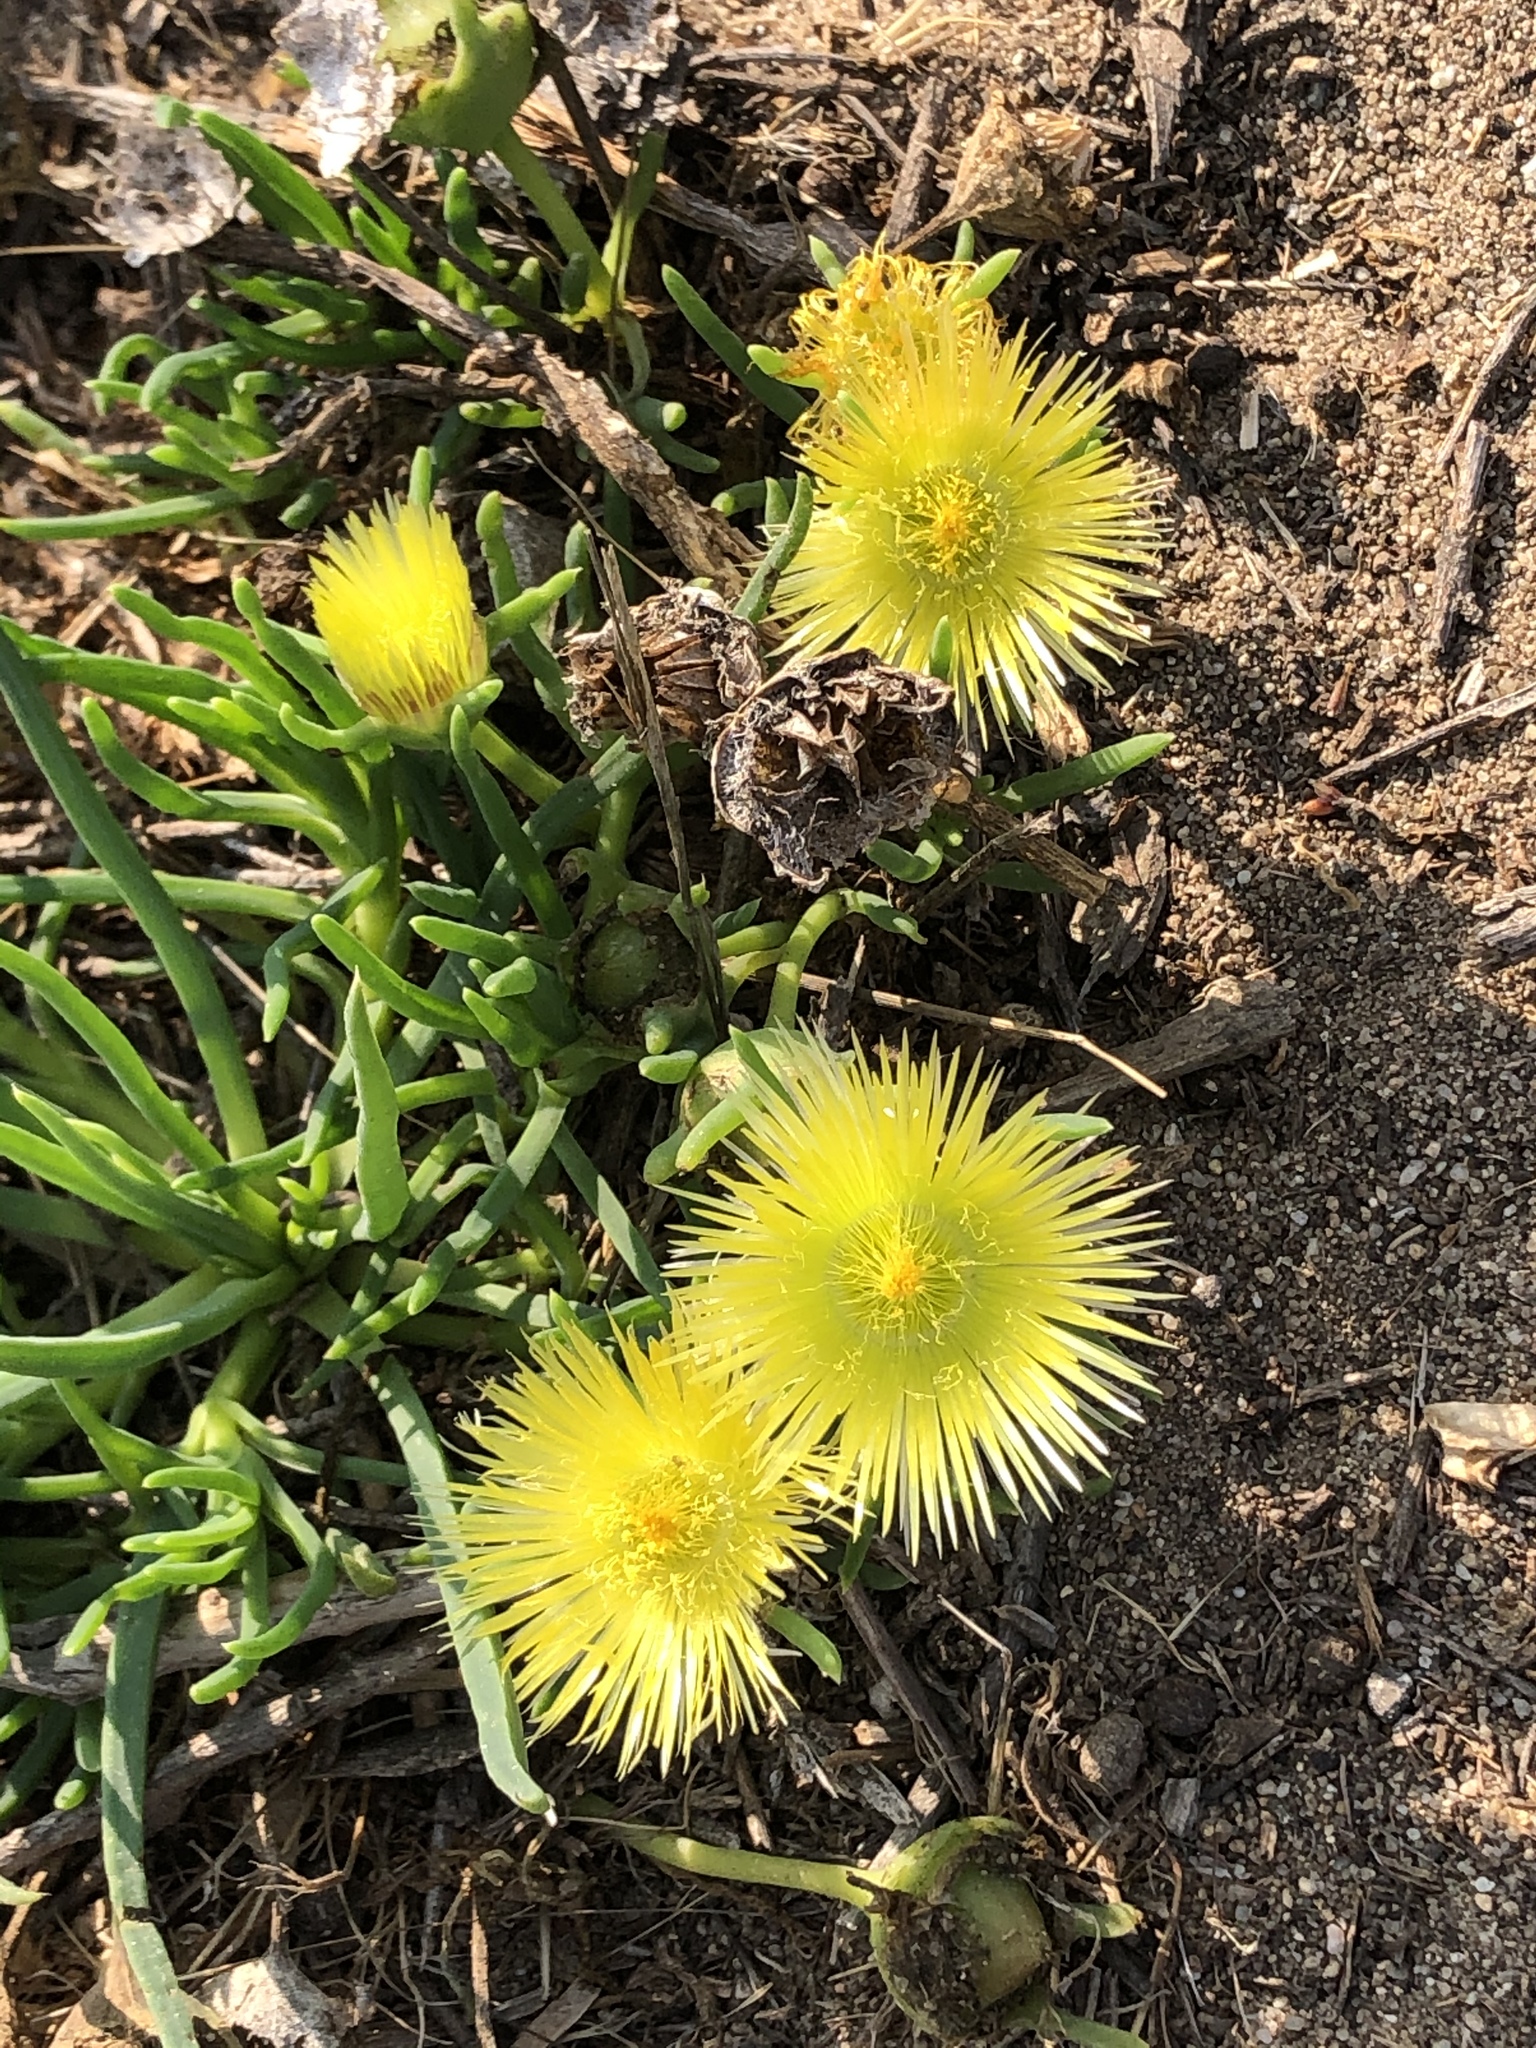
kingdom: Plantae
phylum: Tracheophyta
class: Magnoliopsida
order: Caryophyllales
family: Aizoaceae
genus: Conicosia
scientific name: Conicosia pugioniformis
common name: Narrow-leaved iceplant
